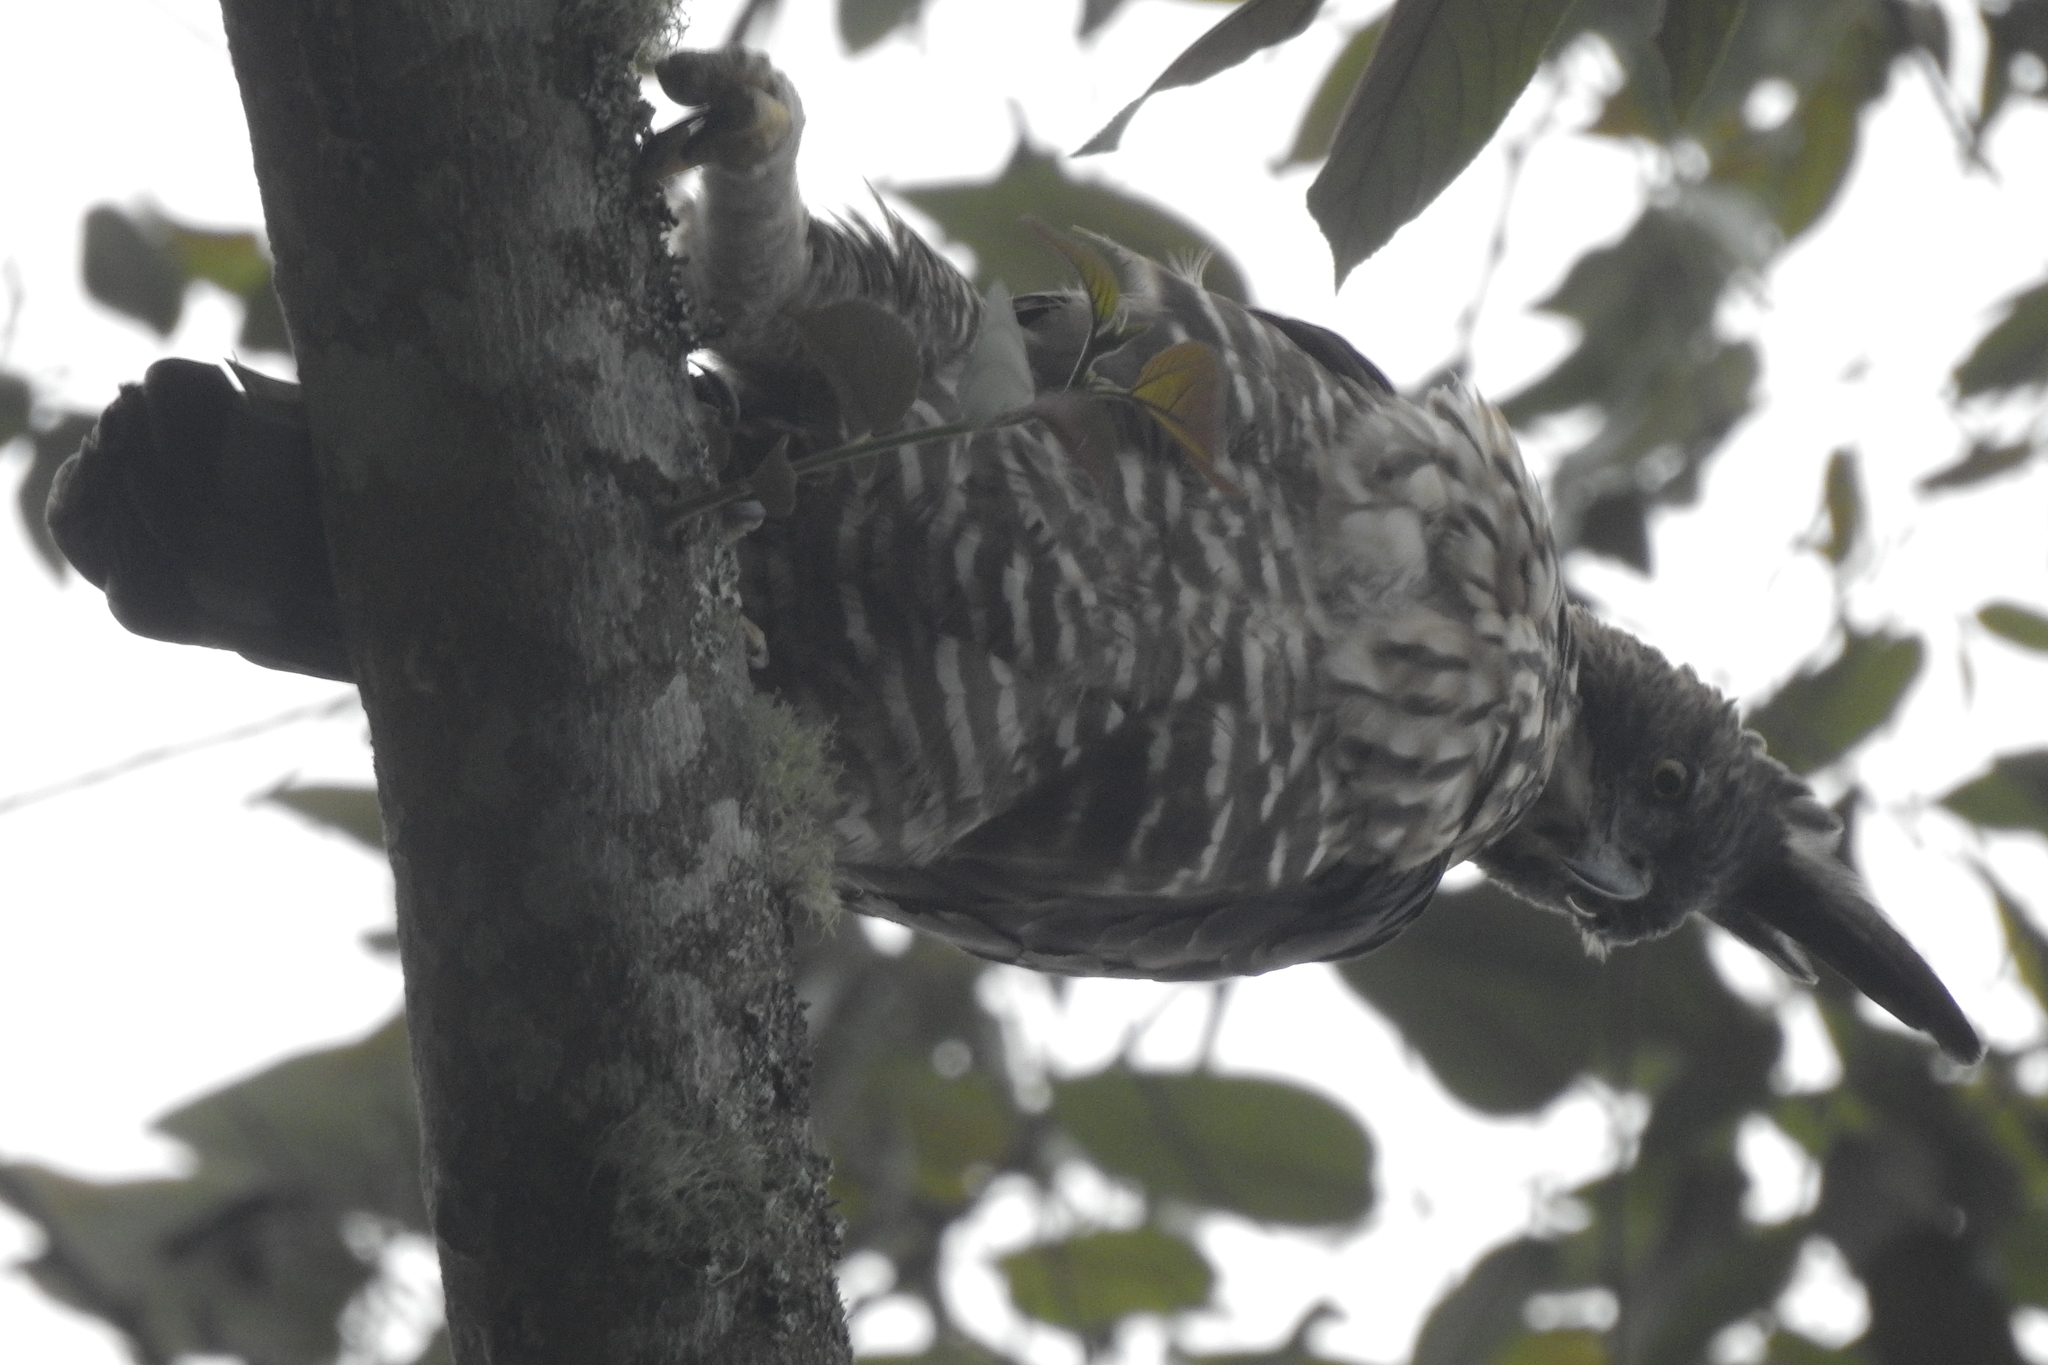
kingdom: Animalia
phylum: Chordata
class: Aves
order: Accipitriformes
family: Accipitridae
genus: Nisaetus
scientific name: Nisaetus bartelsi
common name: Javan hawk-eagle
